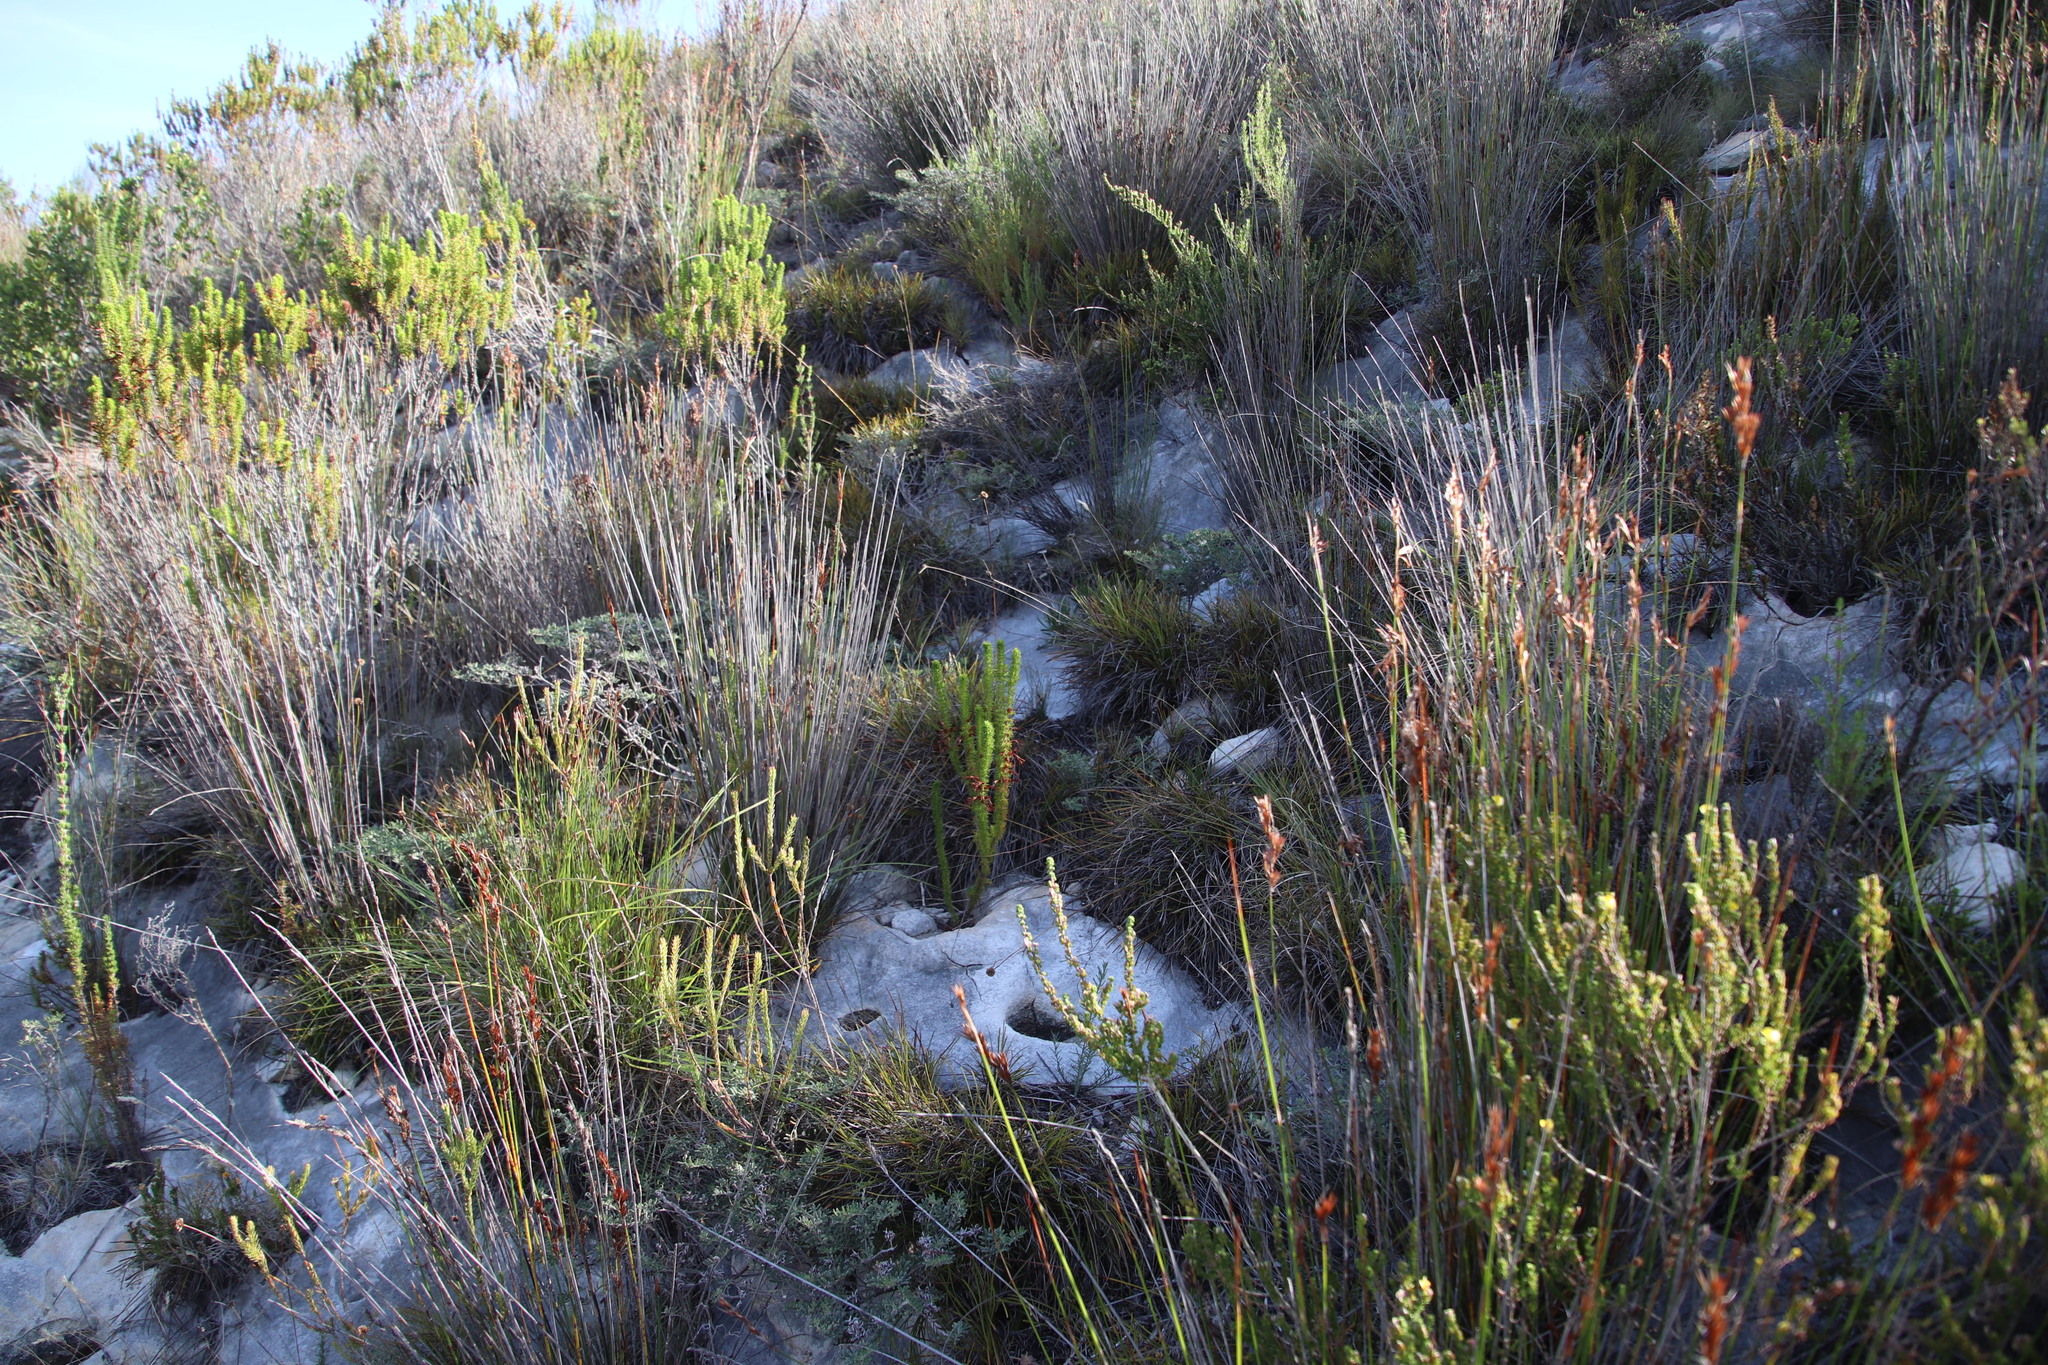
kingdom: Plantae
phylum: Tracheophyta
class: Magnoliopsida
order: Ericales
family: Ericaceae
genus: Erica
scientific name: Erica coccinea
